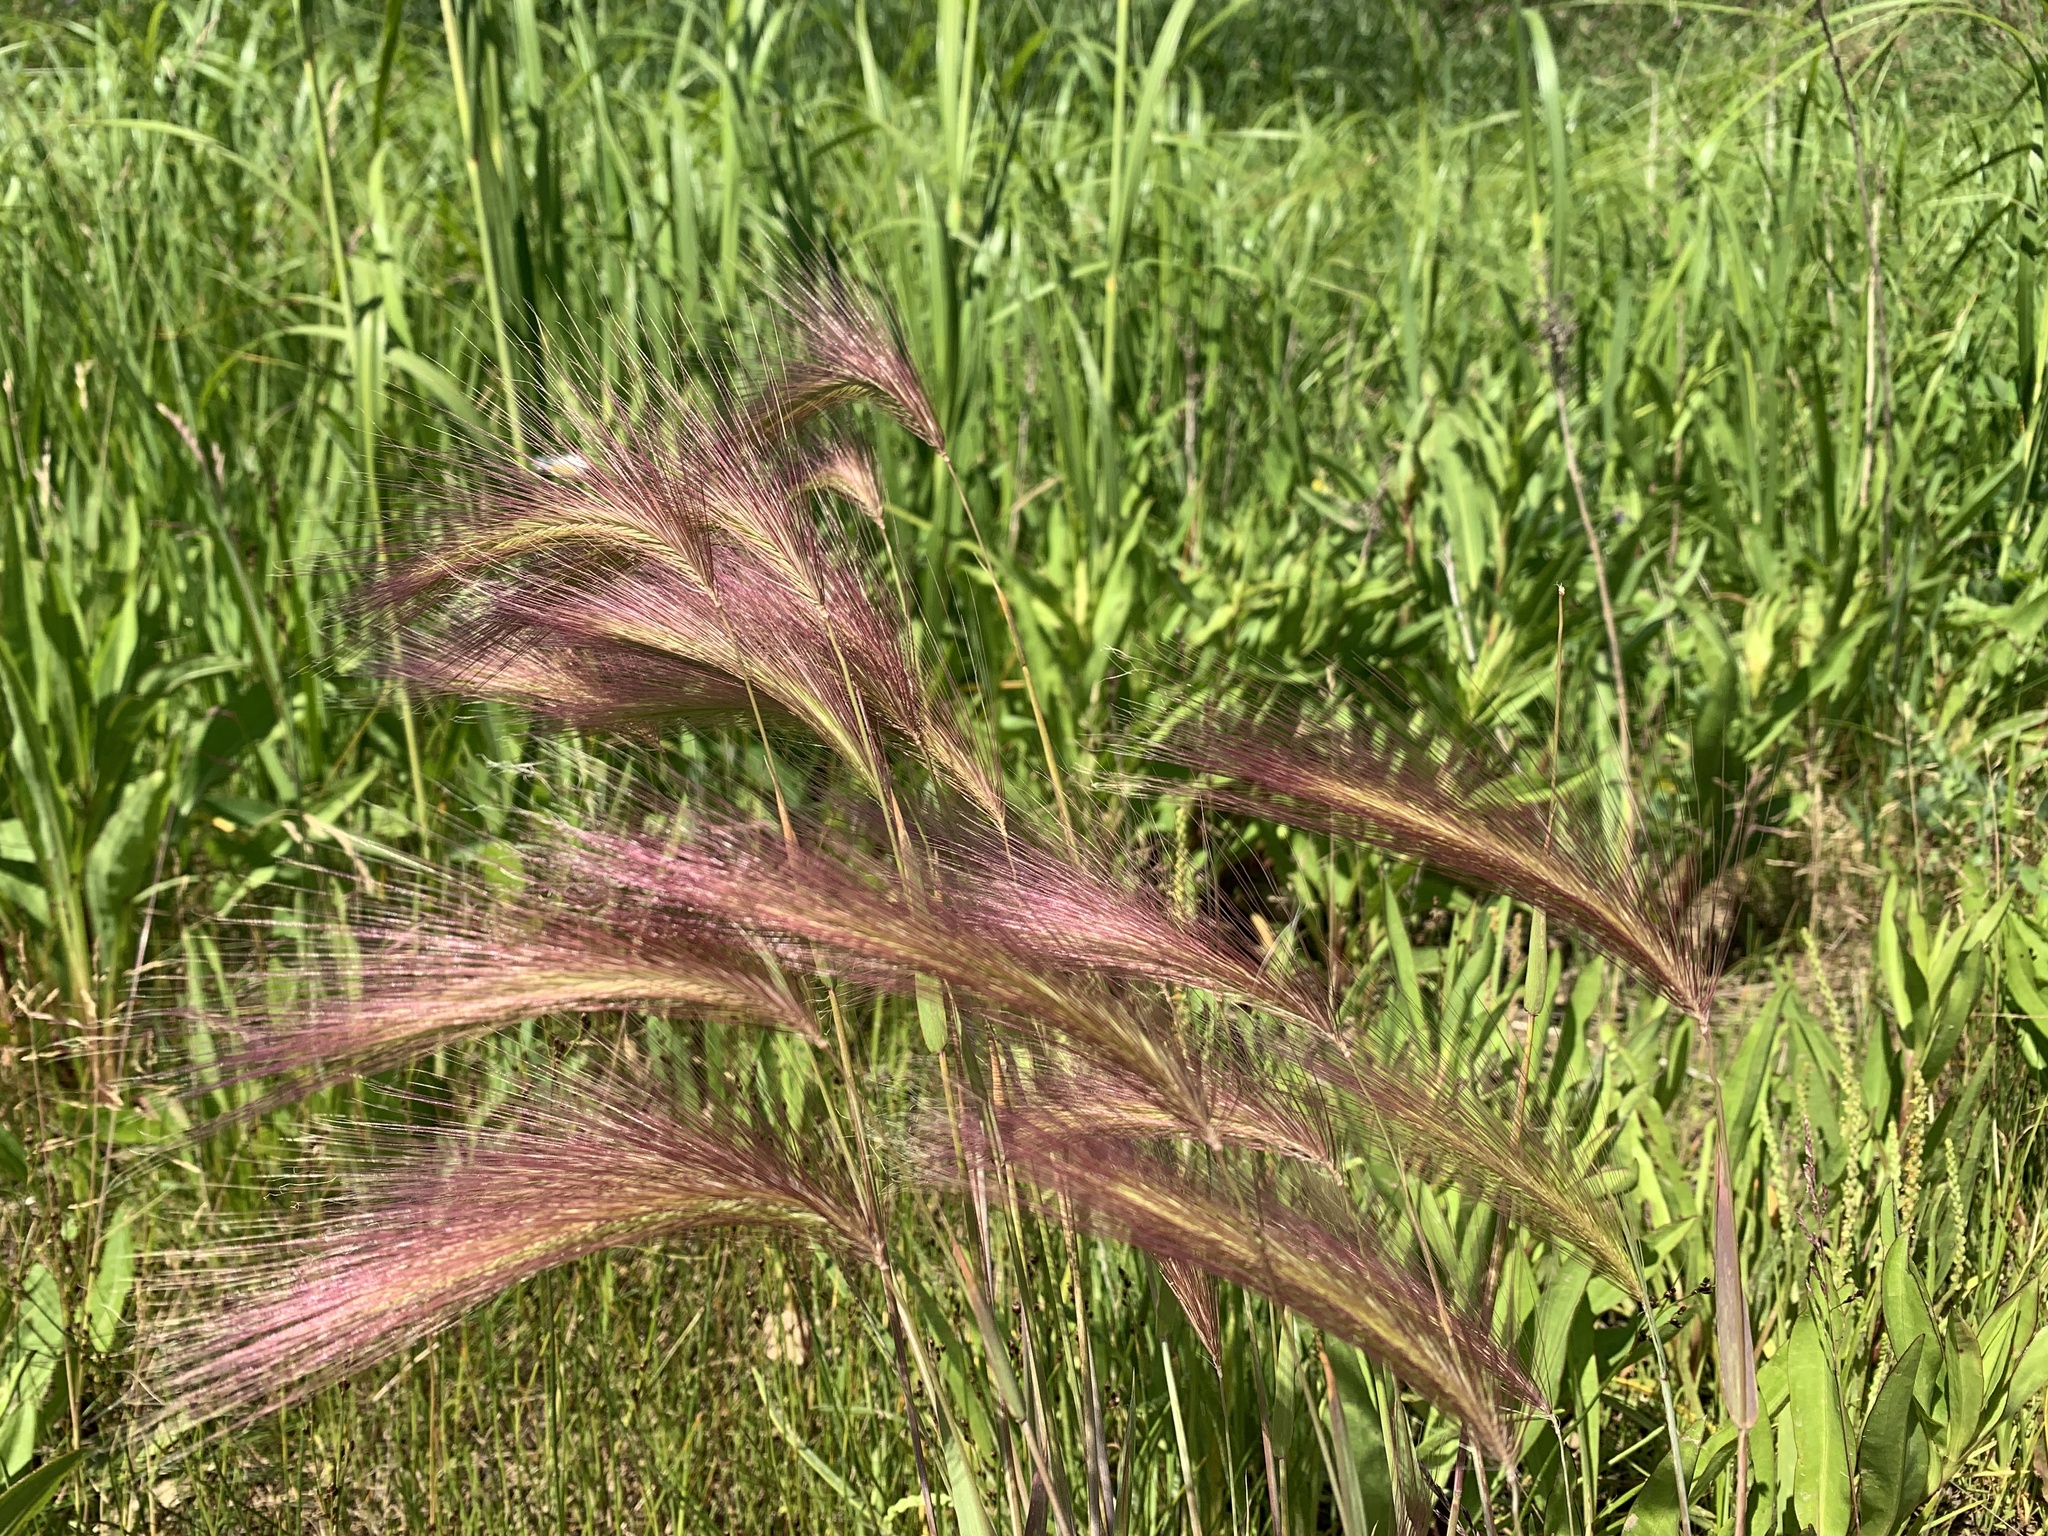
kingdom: Plantae
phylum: Tracheophyta
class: Liliopsida
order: Poales
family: Poaceae
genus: Hordeum
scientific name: Hordeum jubatum
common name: Foxtail barley
